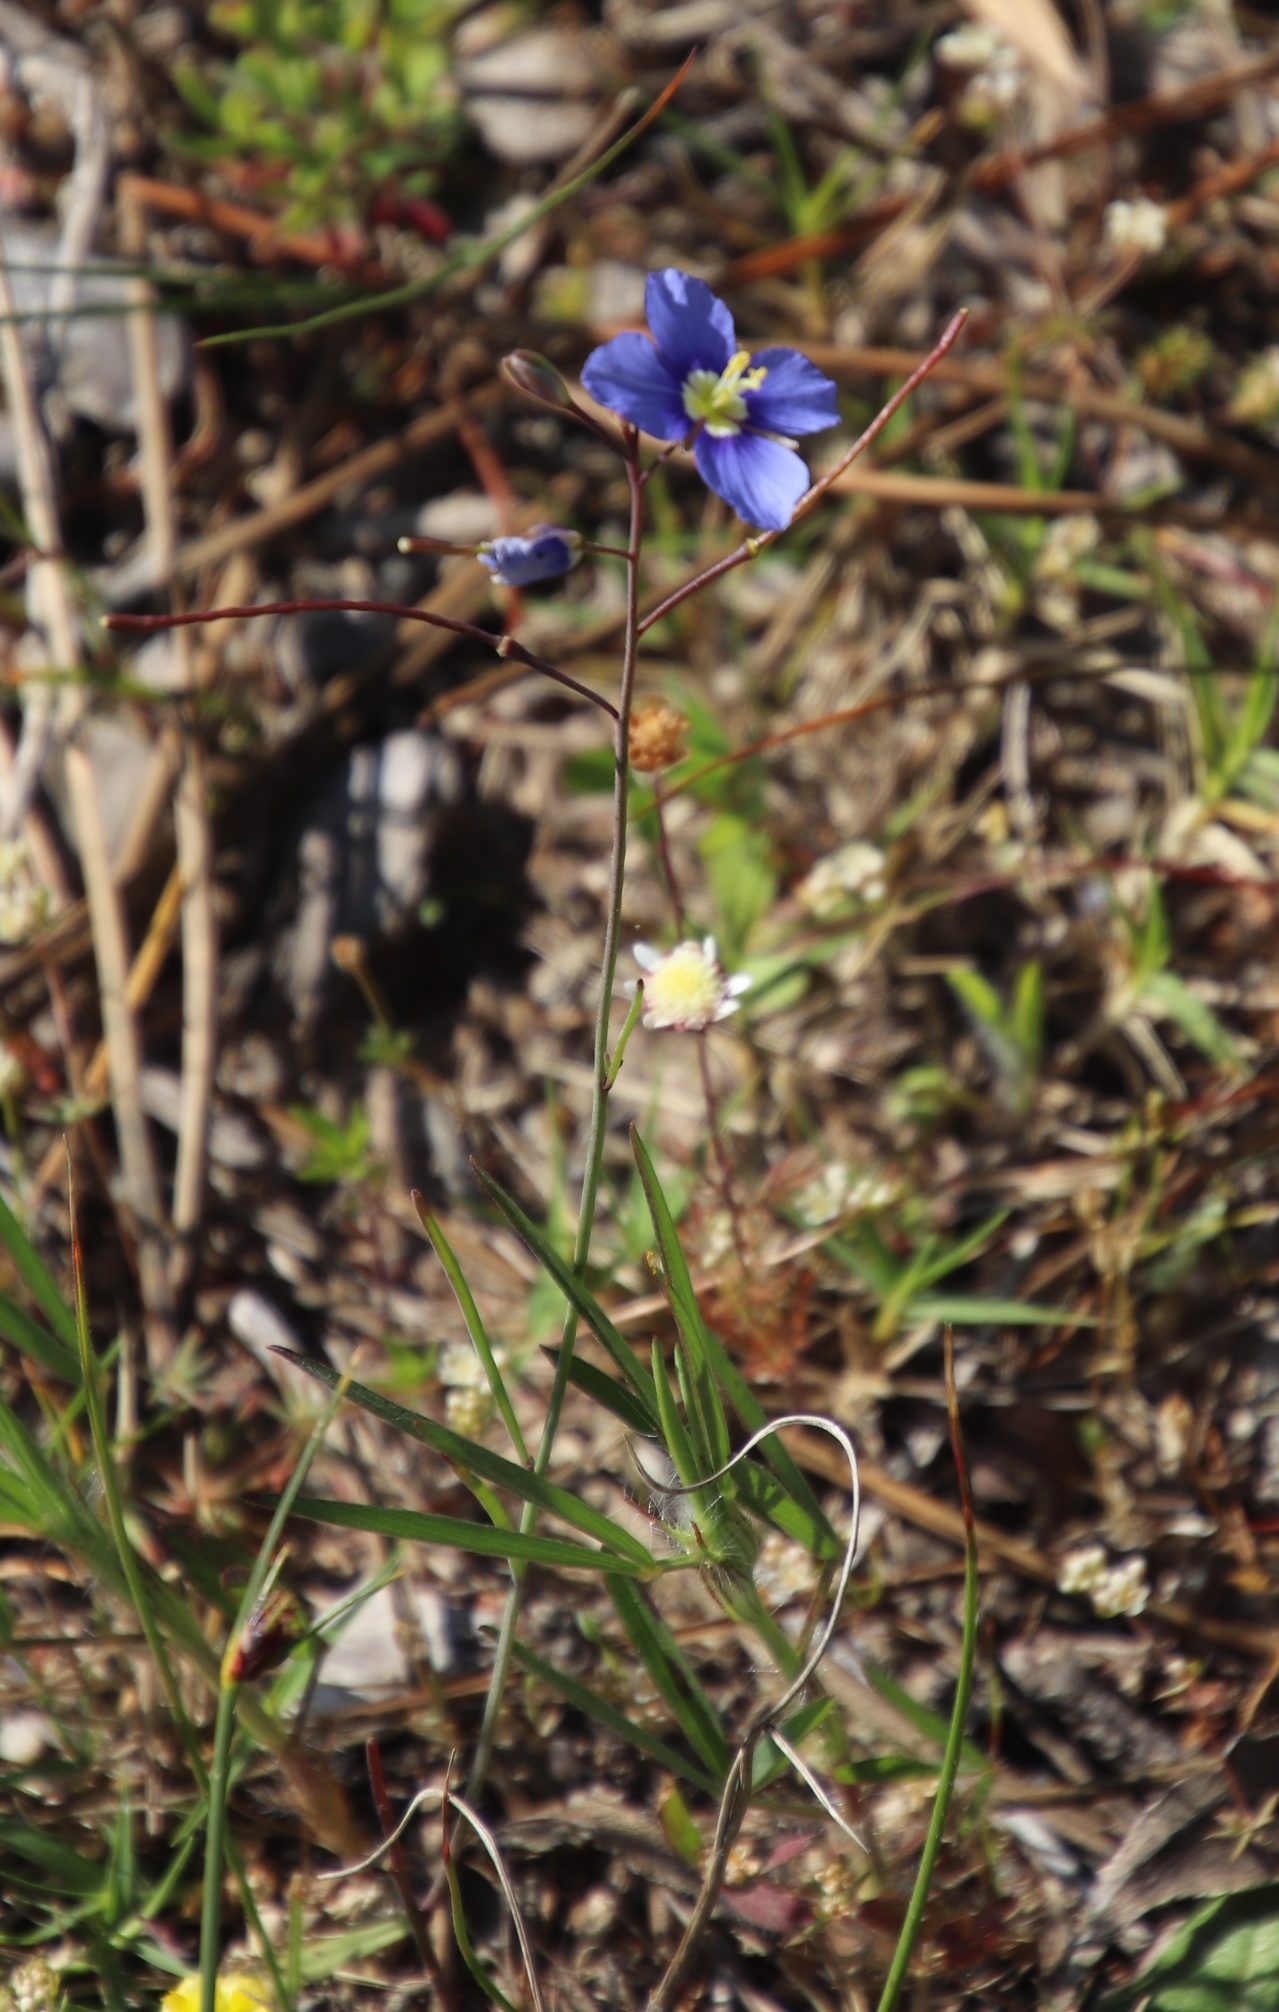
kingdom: Plantae
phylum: Tracheophyta
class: Magnoliopsida
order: Brassicales
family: Brassicaceae
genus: Heliophila
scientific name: Heliophila coronopifolia
